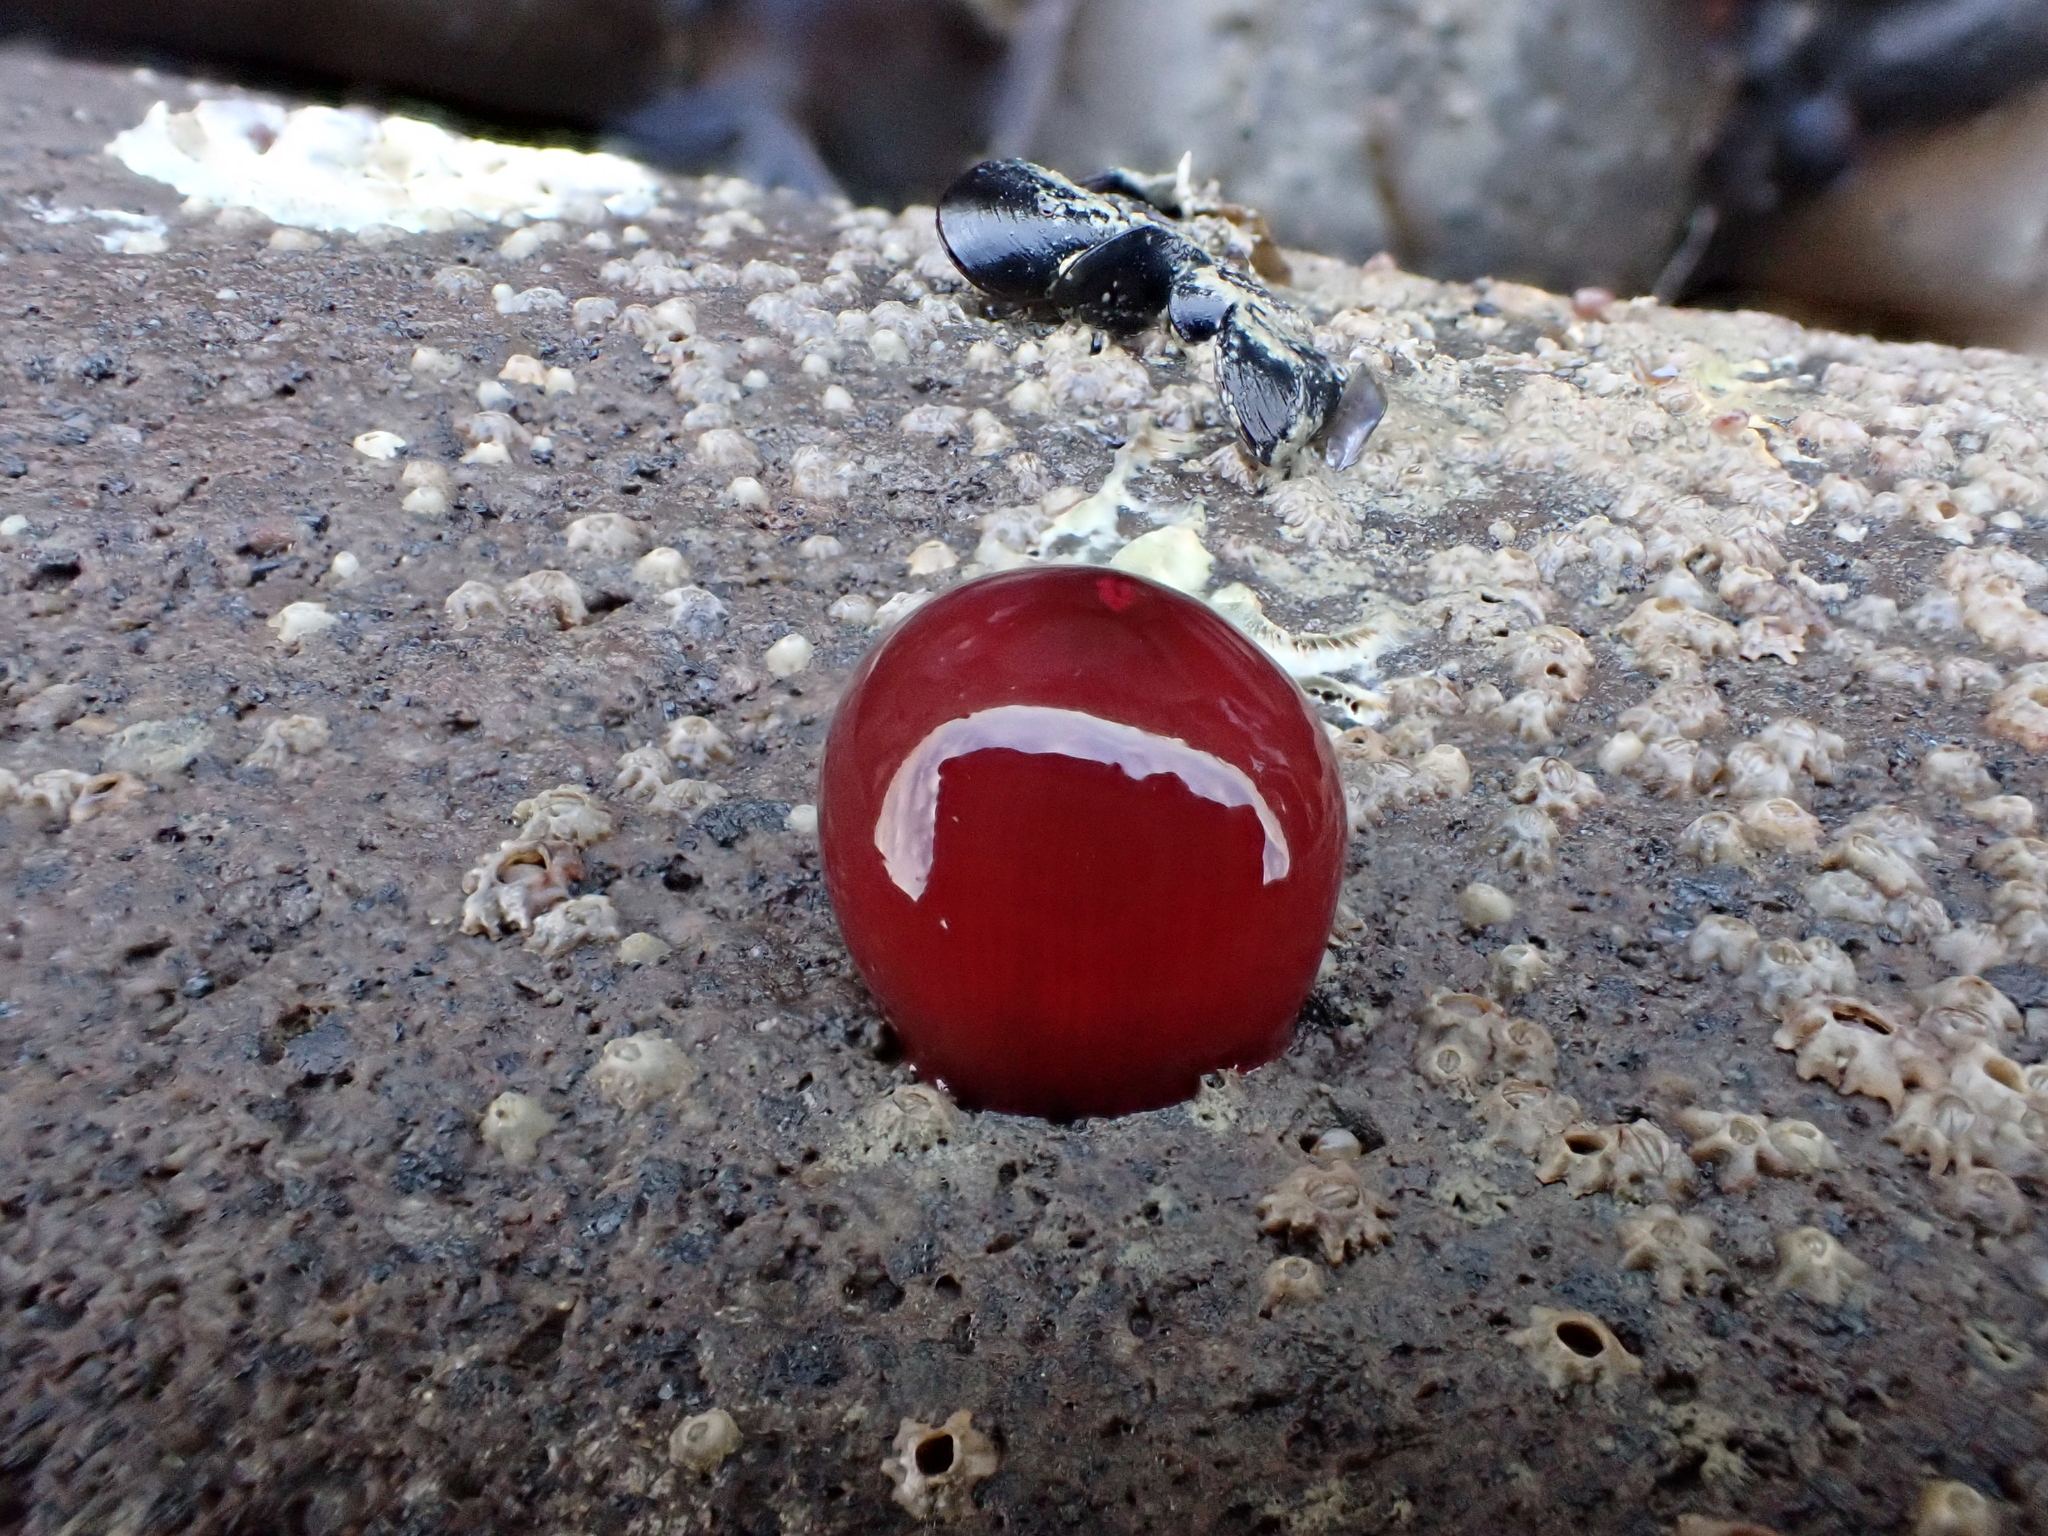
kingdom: Animalia
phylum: Cnidaria
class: Anthozoa
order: Actiniaria
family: Actiniidae
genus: Actinia
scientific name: Actinia tenebrosa
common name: Waratah anemone
